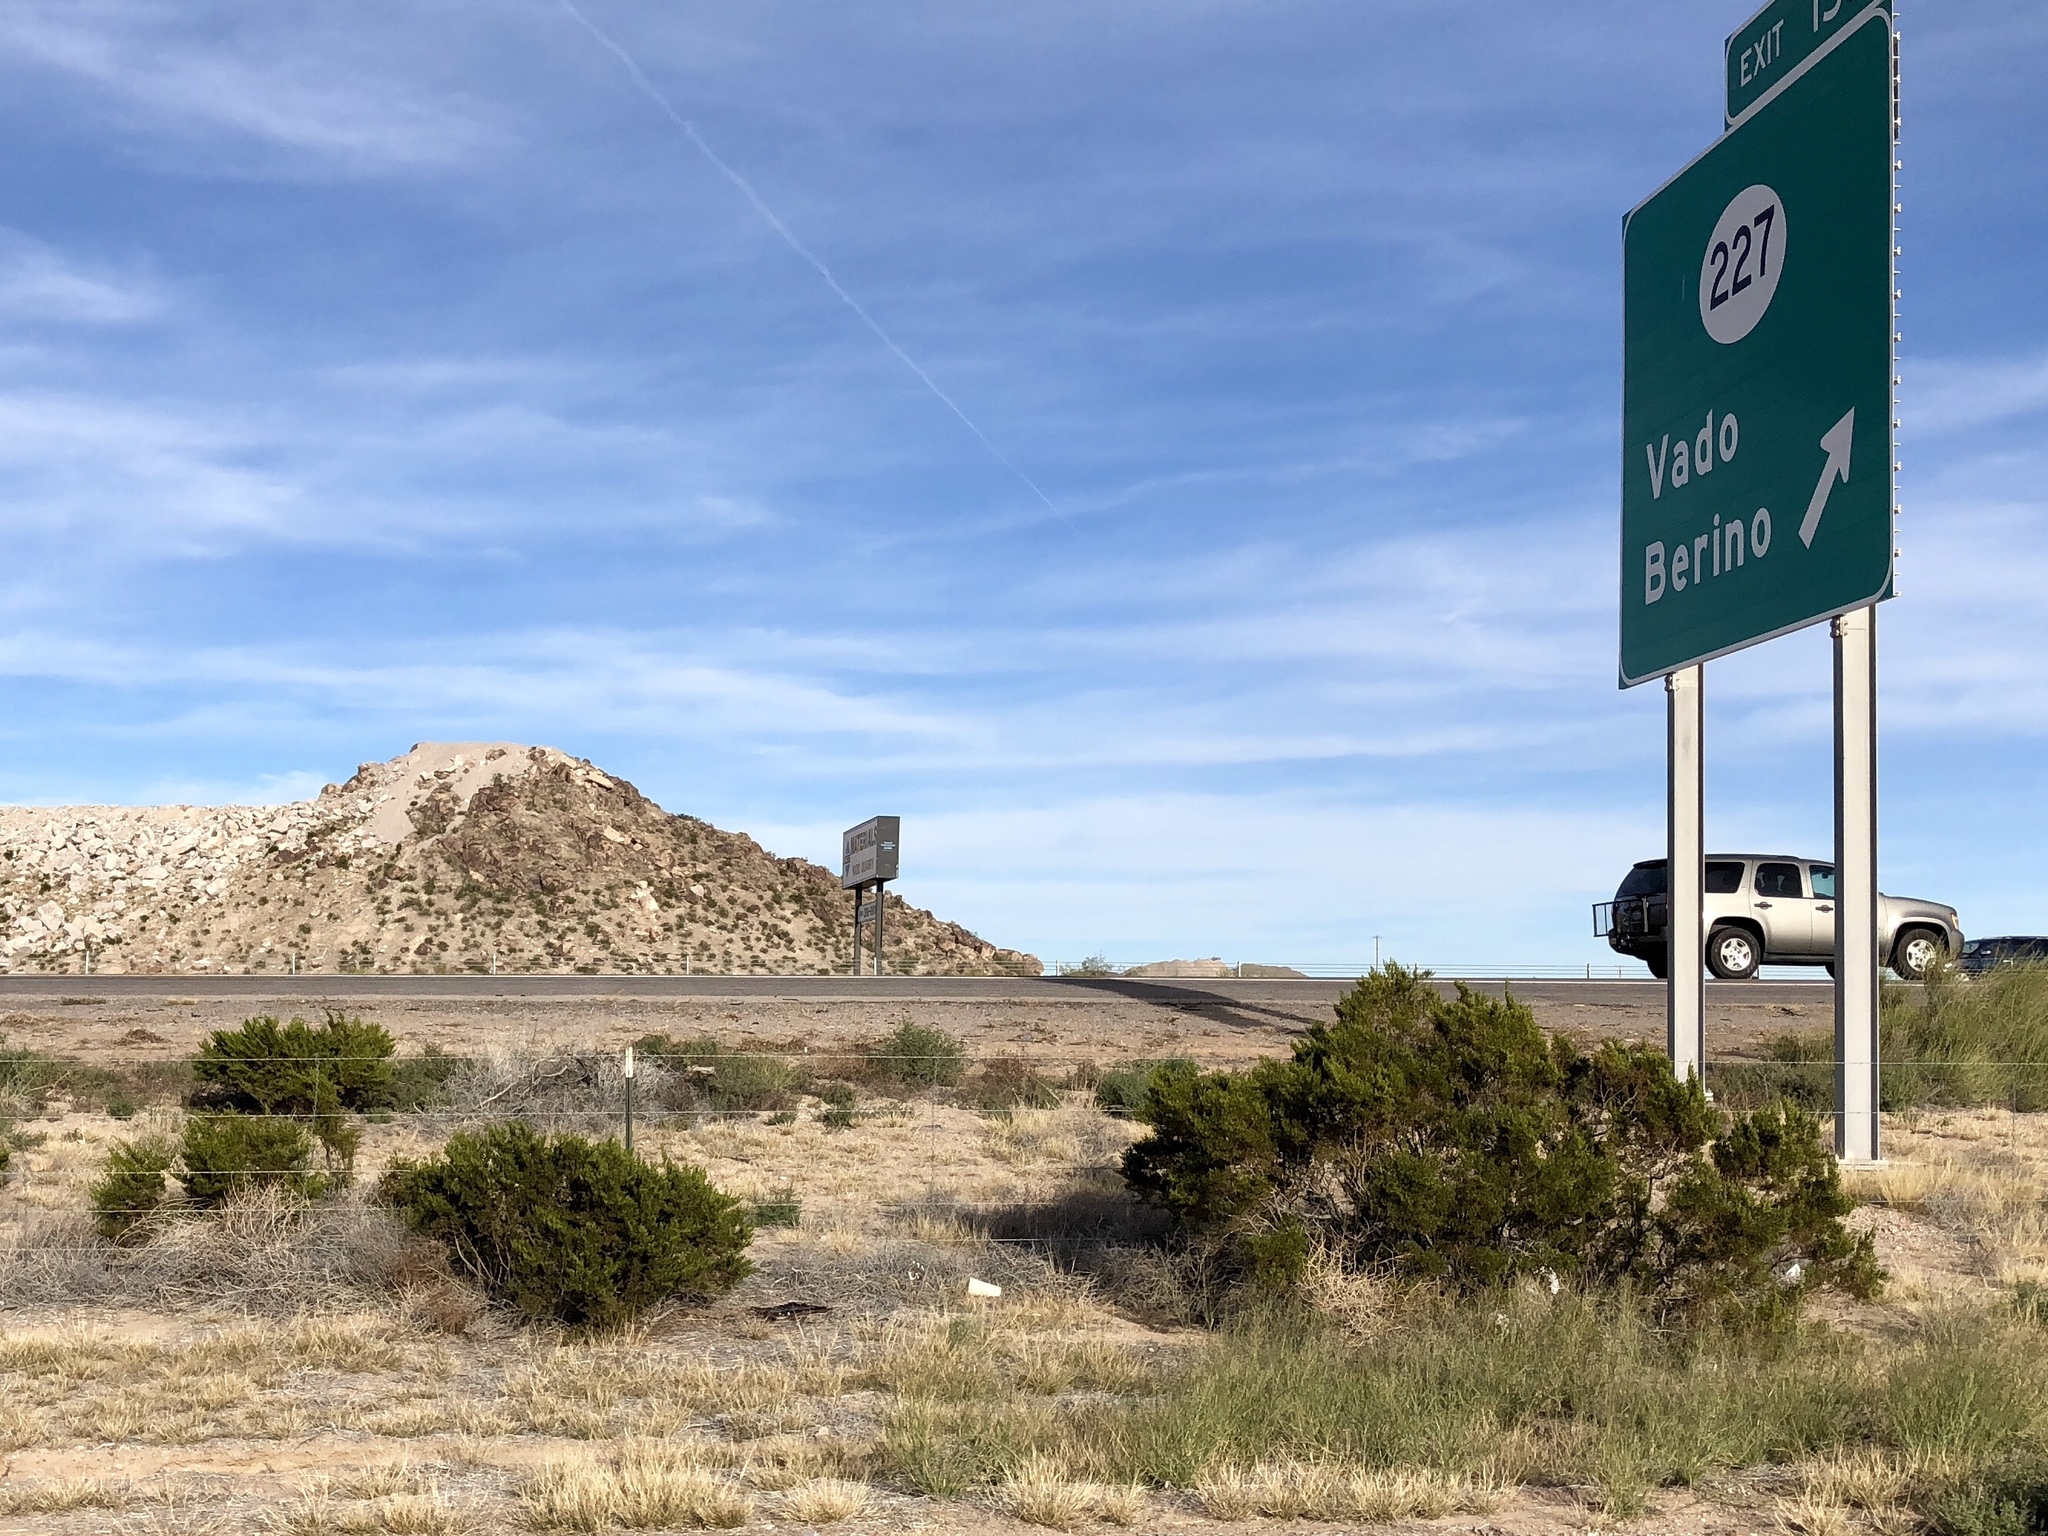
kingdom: Plantae
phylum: Tracheophyta
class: Magnoliopsida
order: Zygophyllales
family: Zygophyllaceae
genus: Larrea
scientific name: Larrea tridentata
